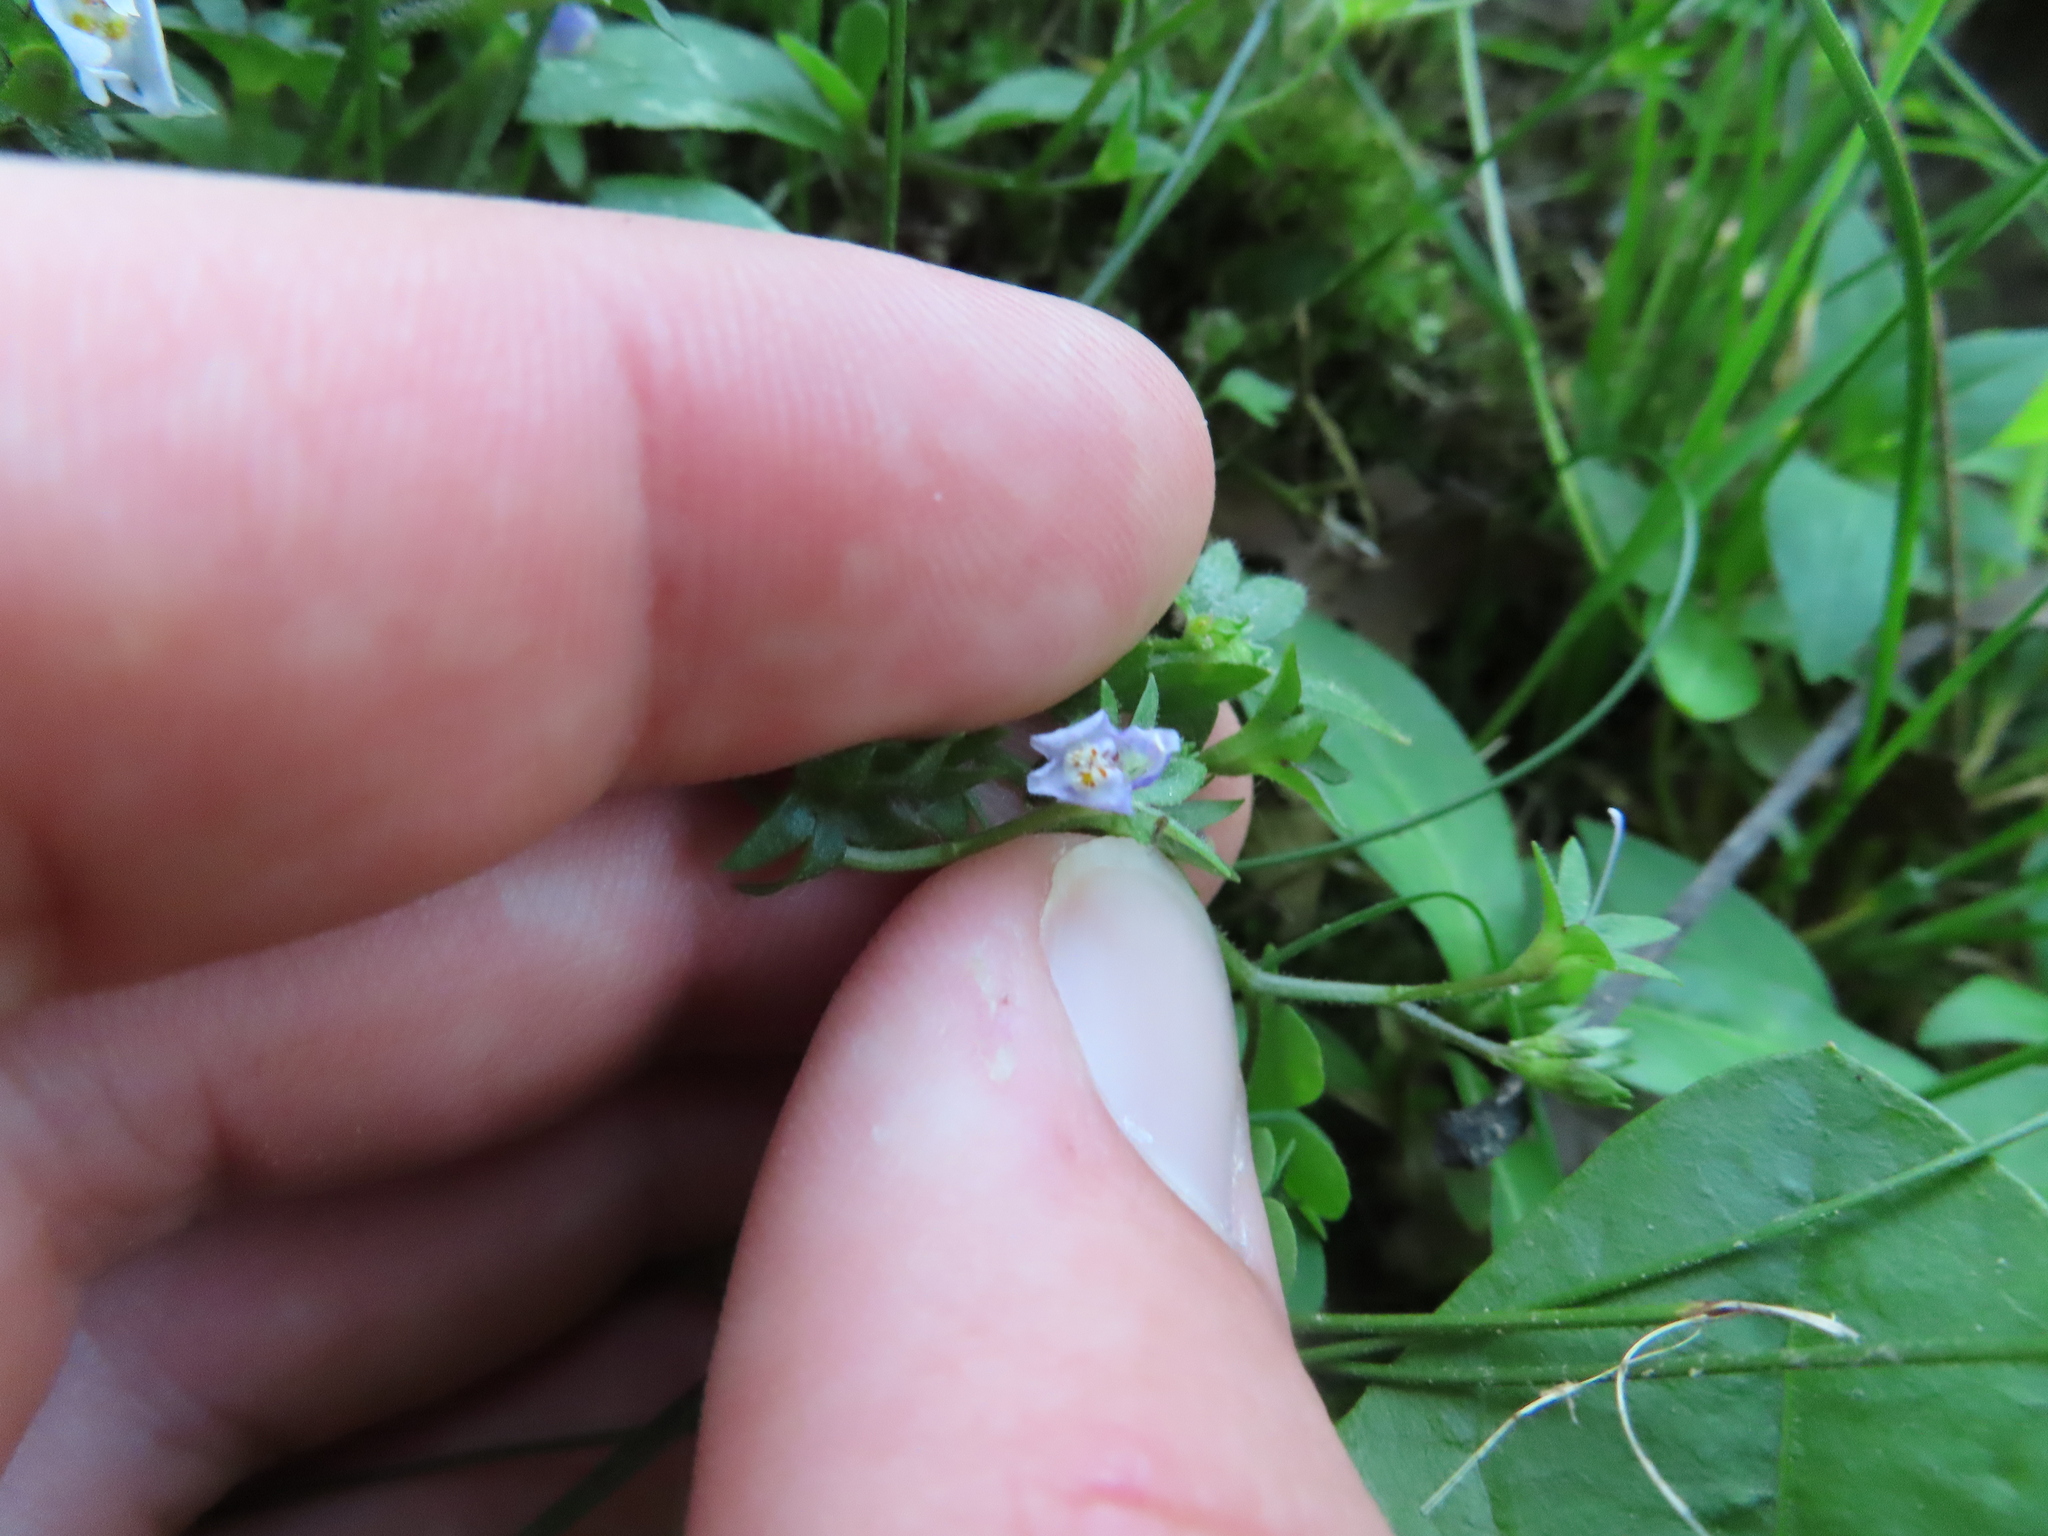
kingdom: Plantae
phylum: Tracheophyta
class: Magnoliopsida
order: Lamiales
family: Mazaceae
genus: Mazus
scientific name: Mazus pumilus
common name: Japanese mazus
